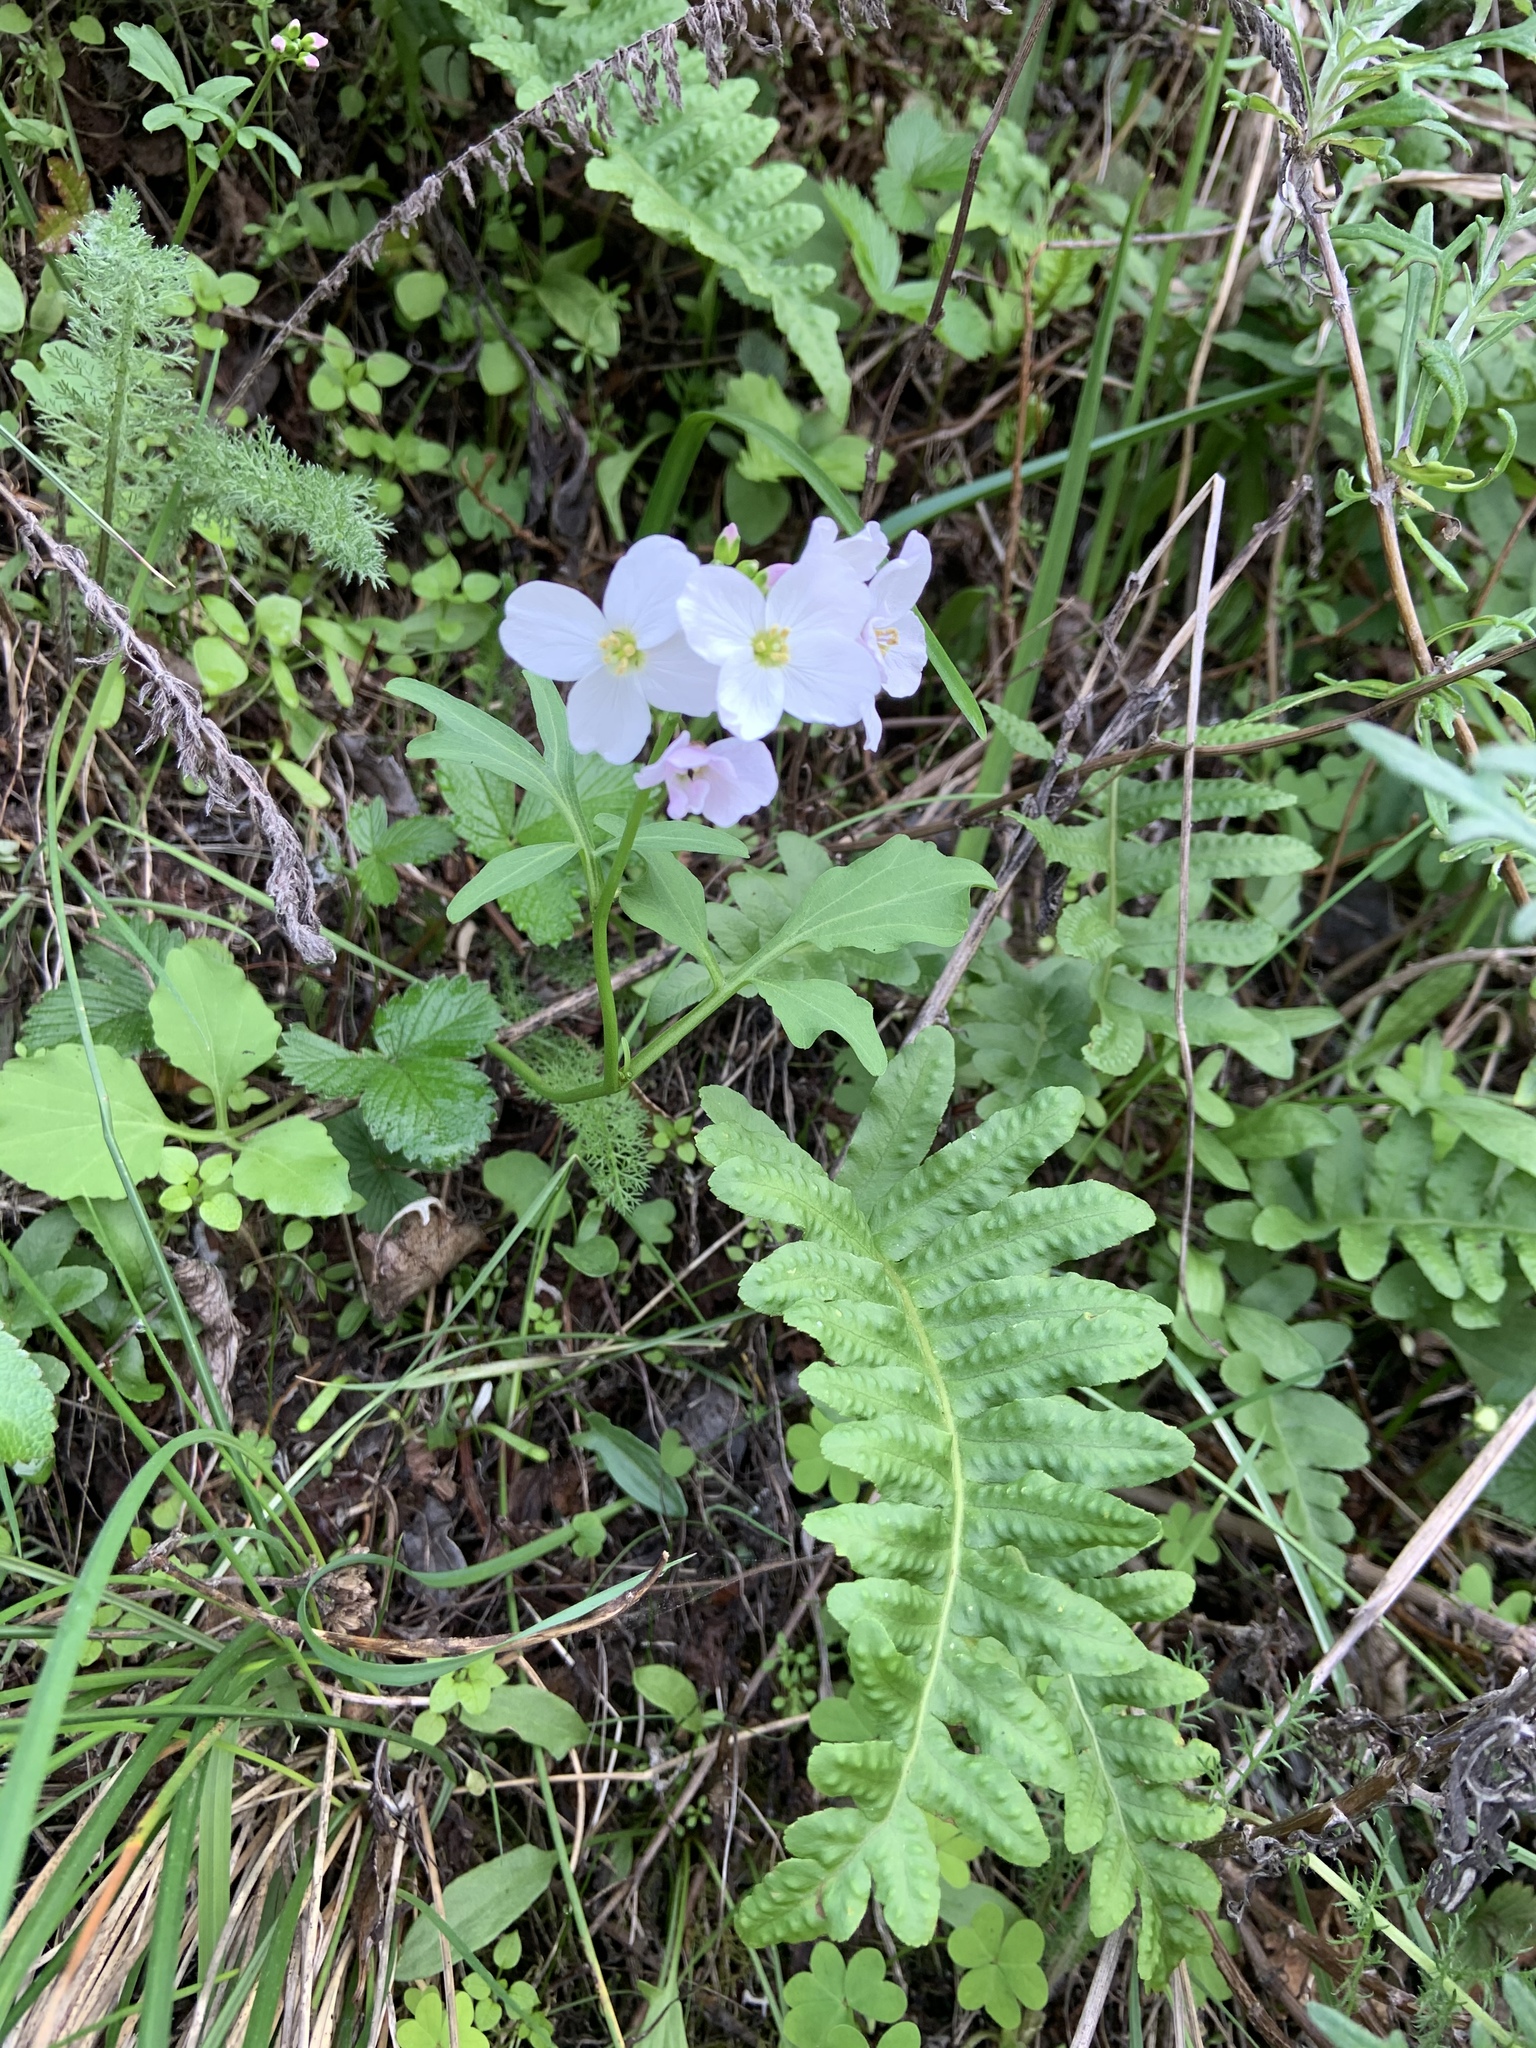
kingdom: Plantae
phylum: Tracheophyta
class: Magnoliopsida
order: Brassicales
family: Brassicaceae
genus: Cardamine
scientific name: Cardamine californica
